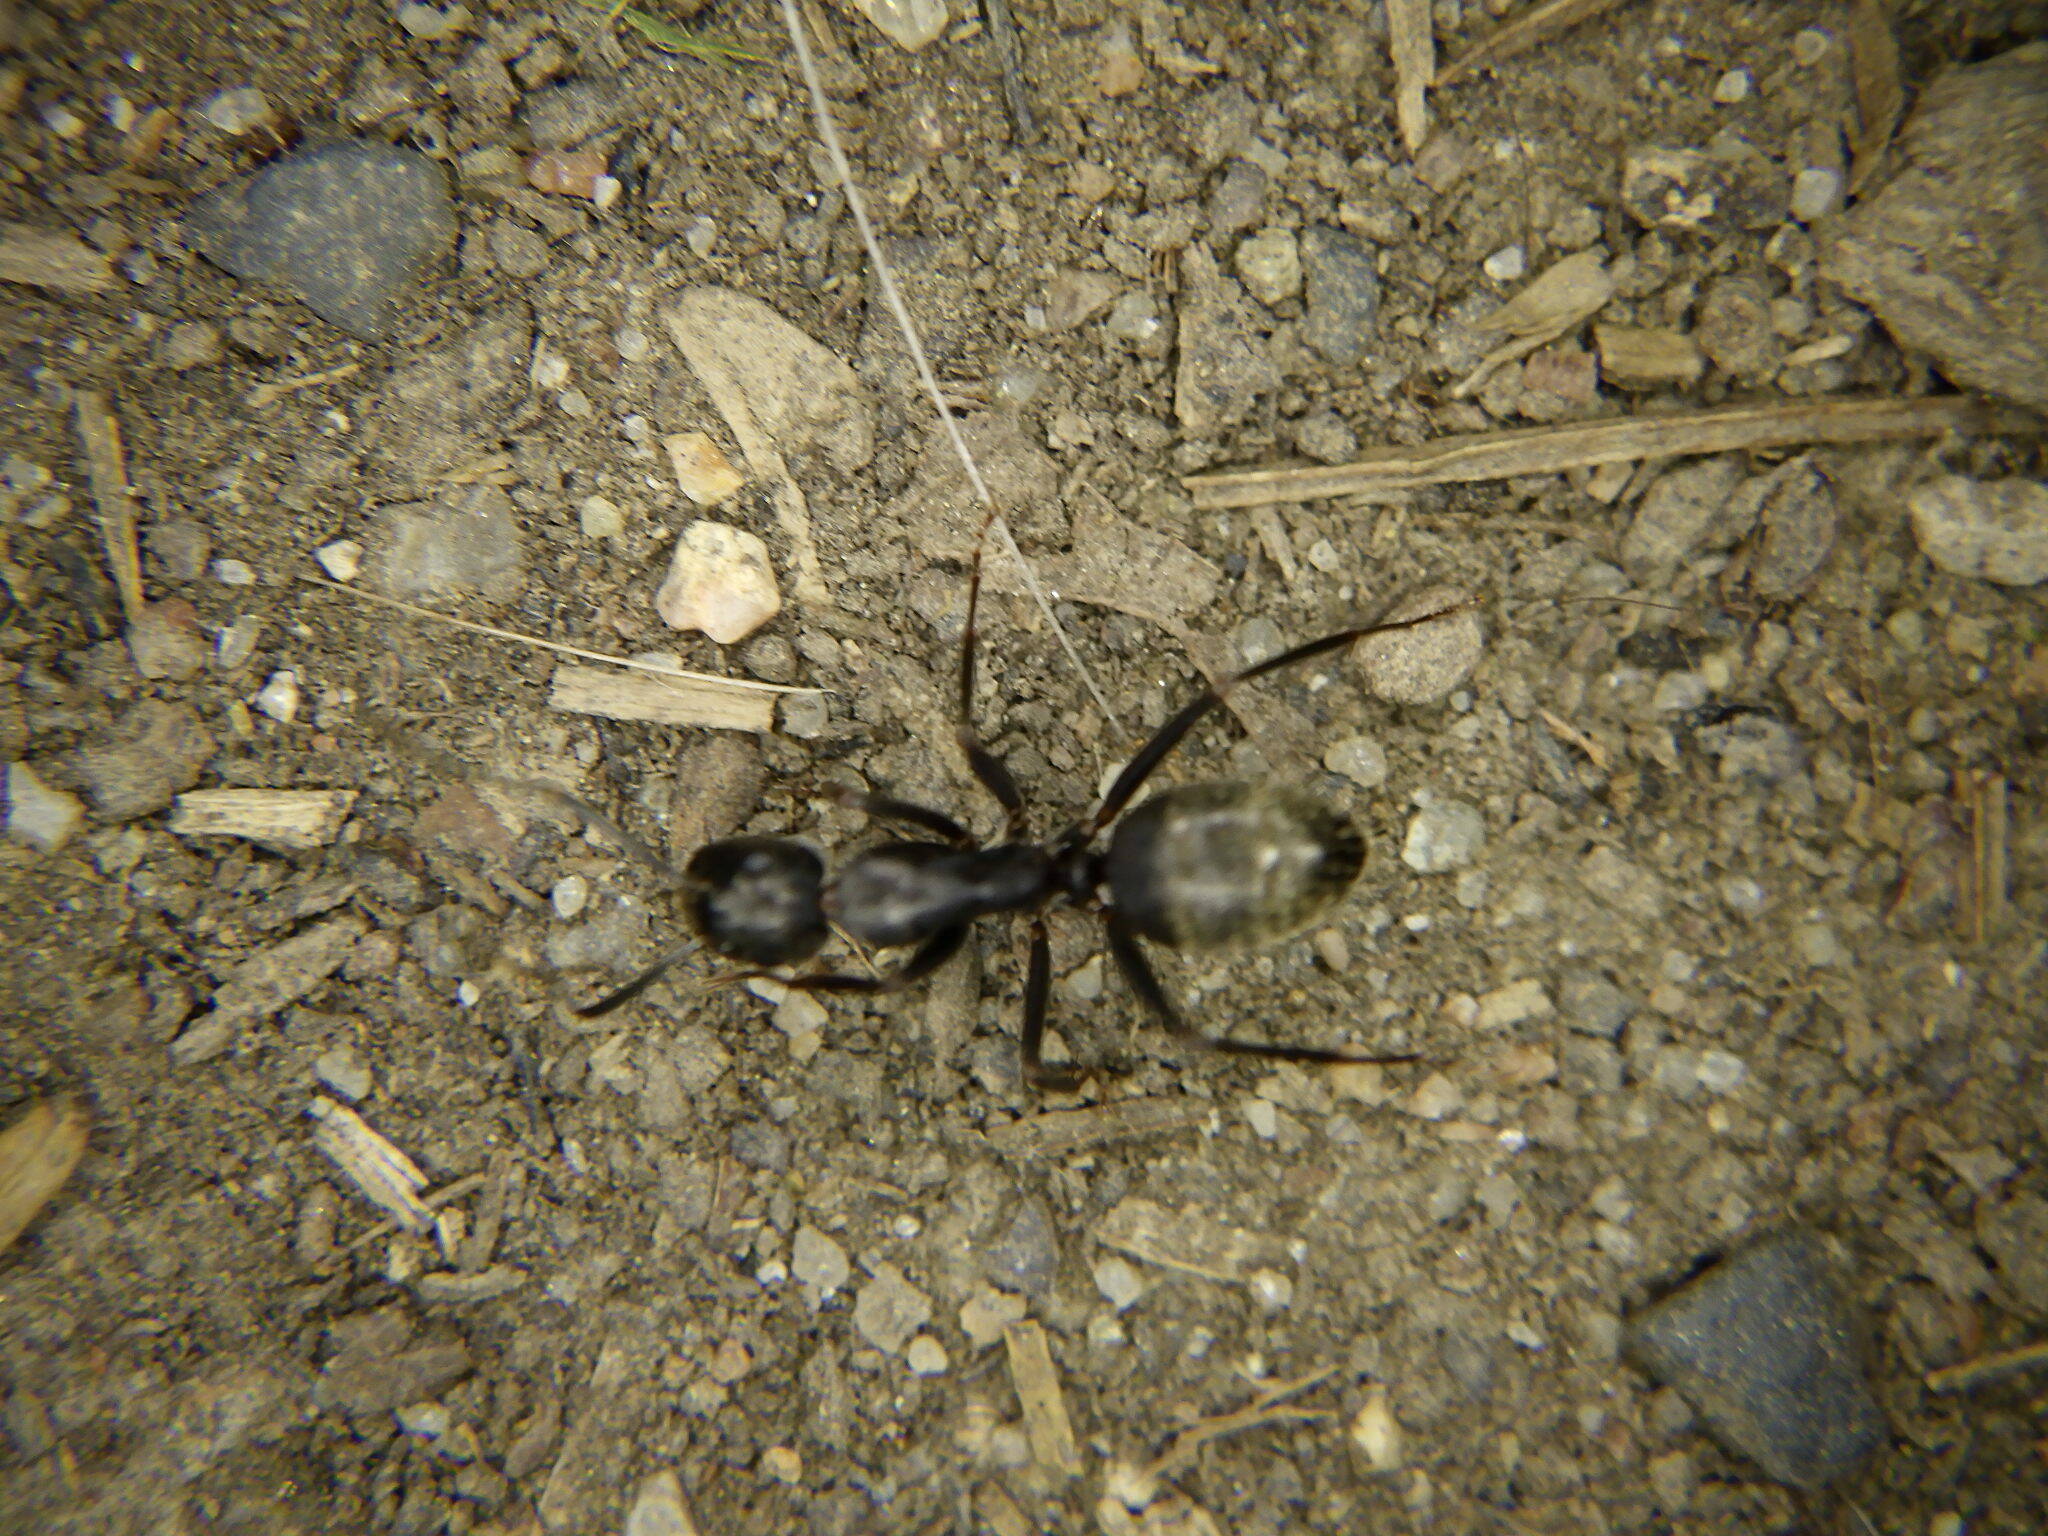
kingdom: Animalia
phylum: Arthropoda
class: Insecta
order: Hymenoptera
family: Formicidae
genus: Camponotus
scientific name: Camponotus pennsylvanicus
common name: Black carpenter ant
